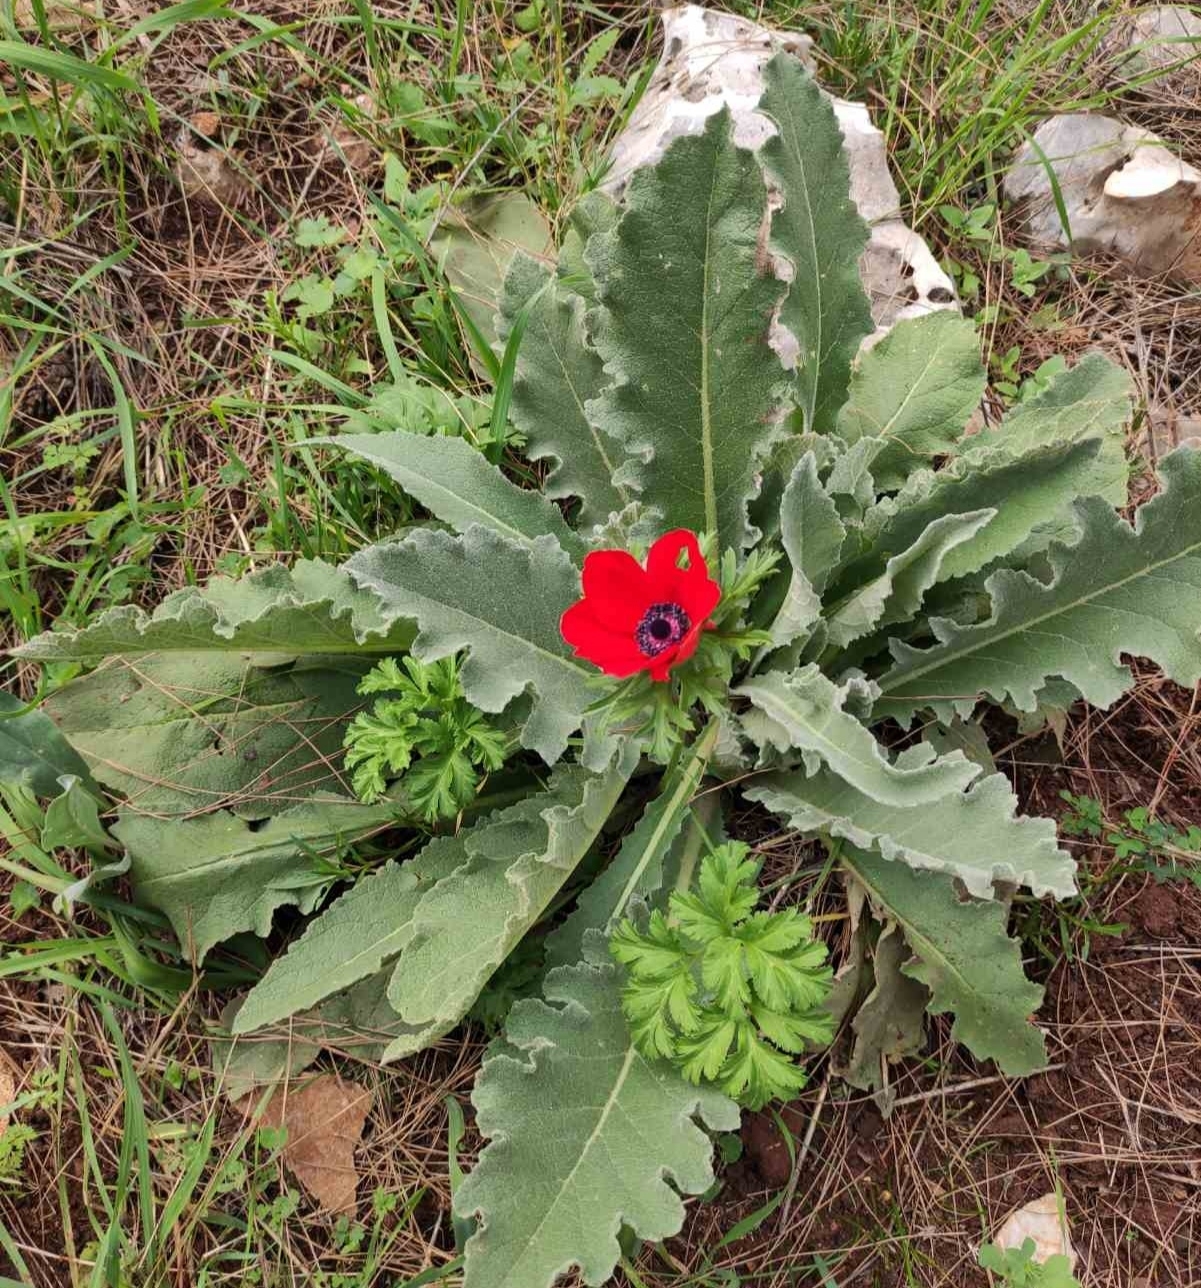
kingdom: Plantae
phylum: Tracheophyta
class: Magnoliopsida
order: Ranunculales
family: Ranunculaceae
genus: Anemone
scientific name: Anemone coronaria
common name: Poppy anemone
